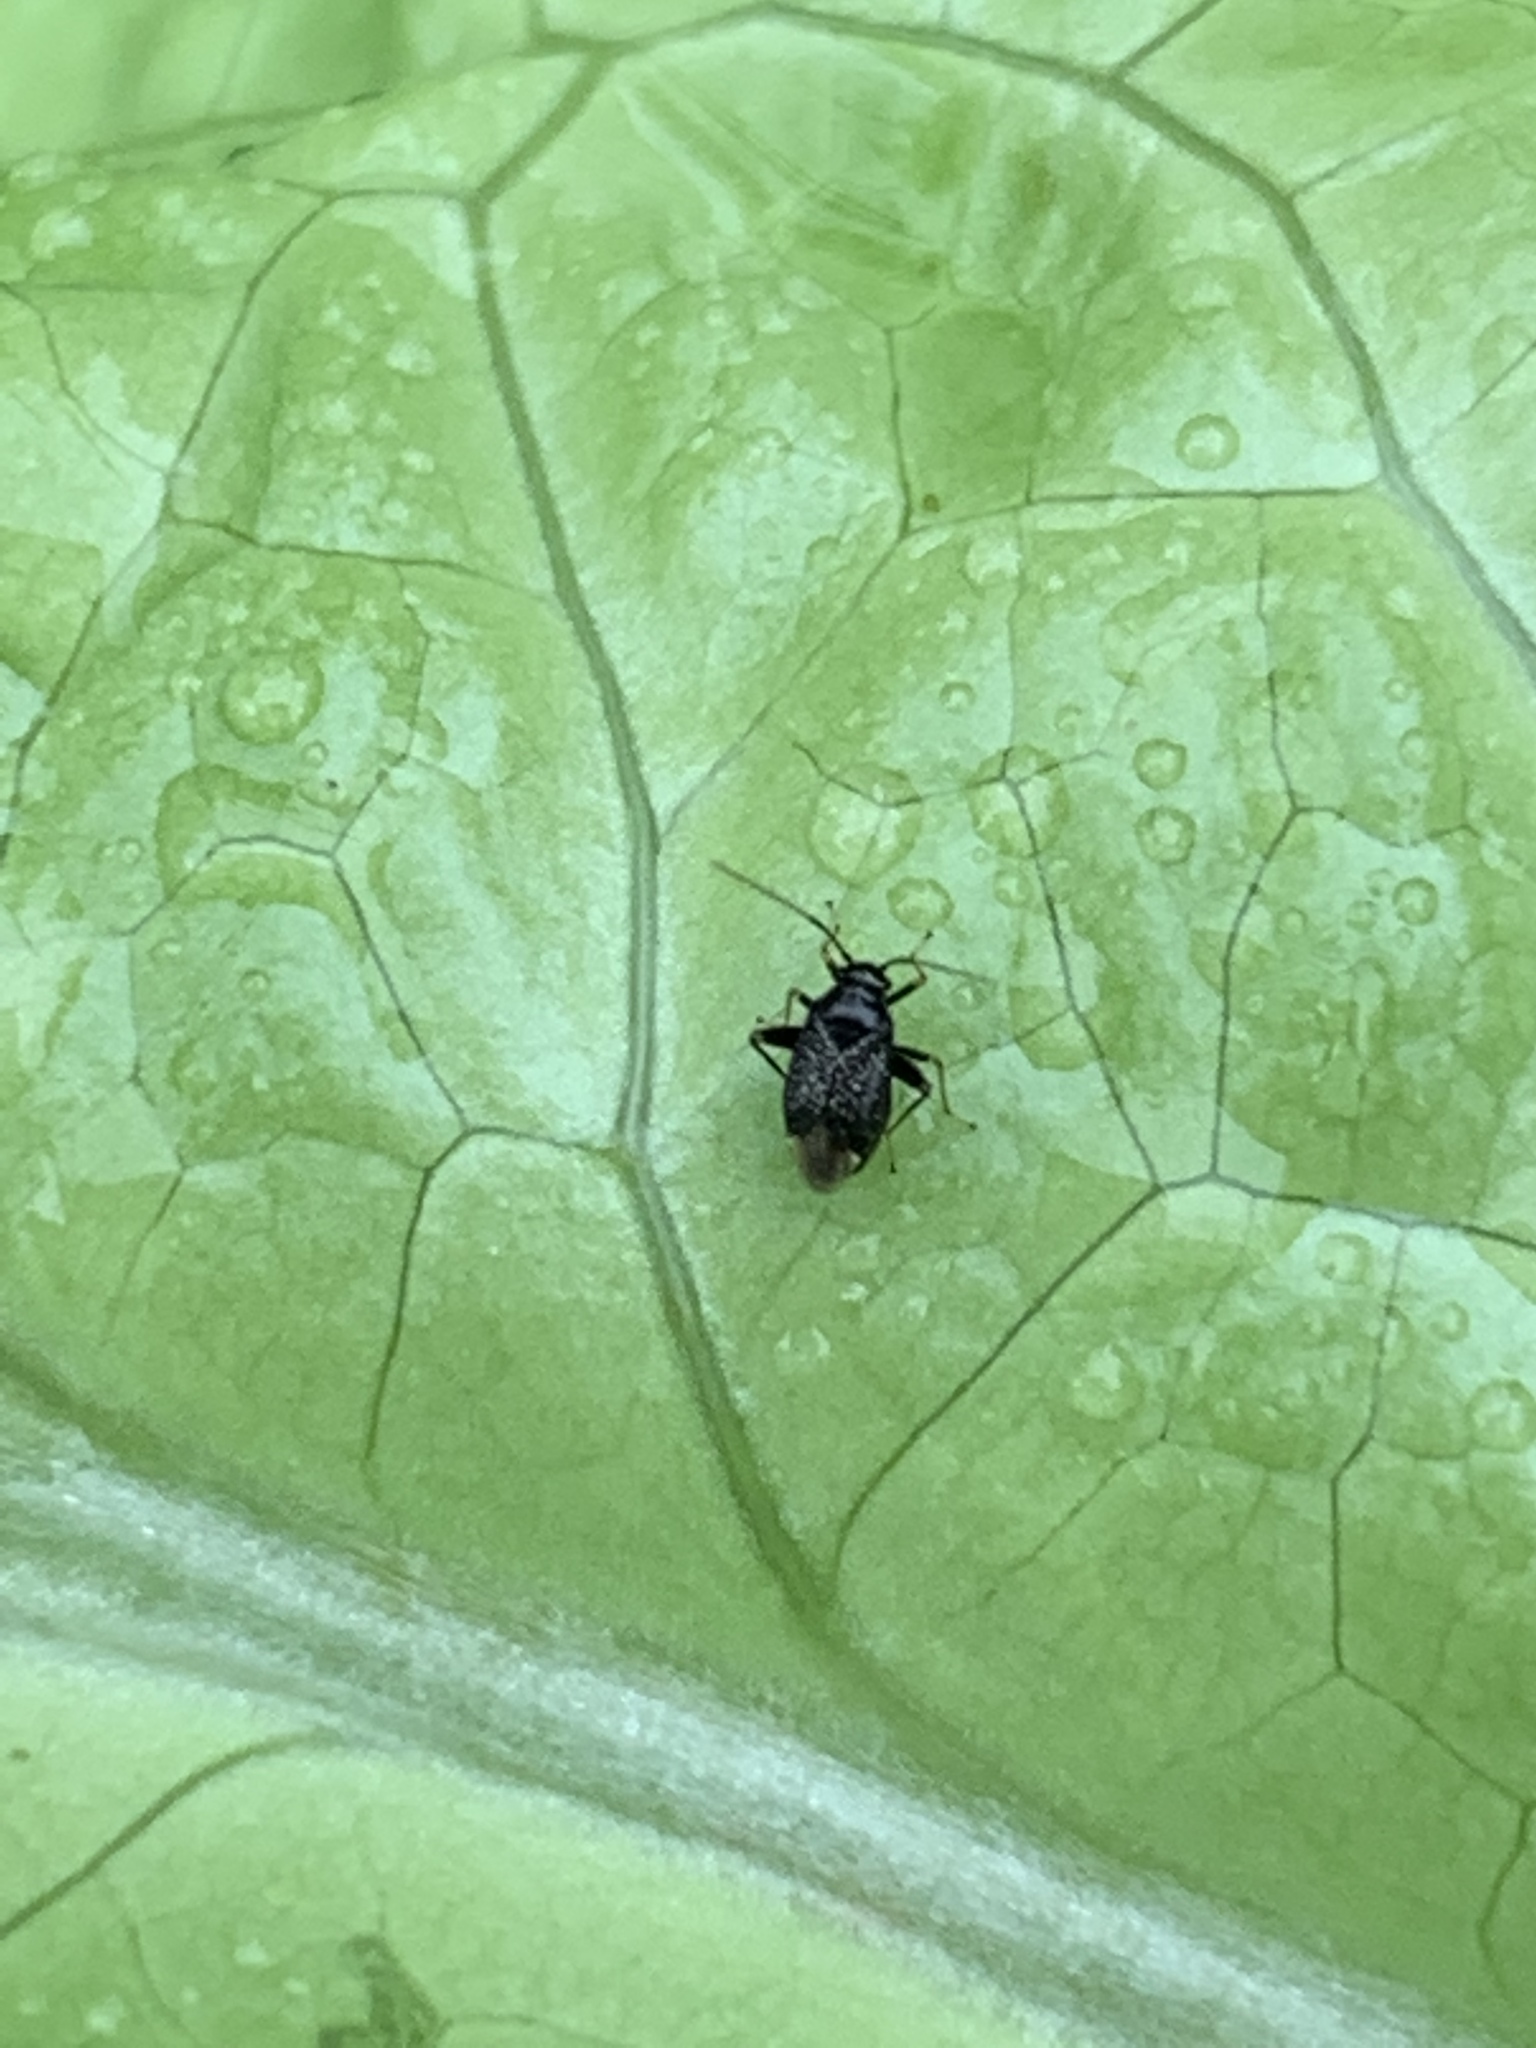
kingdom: Animalia
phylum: Arthropoda
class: Insecta
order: Hemiptera
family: Miridae
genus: Microtechnites
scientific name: Microtechnites bractatus
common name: Garden fleahopper
